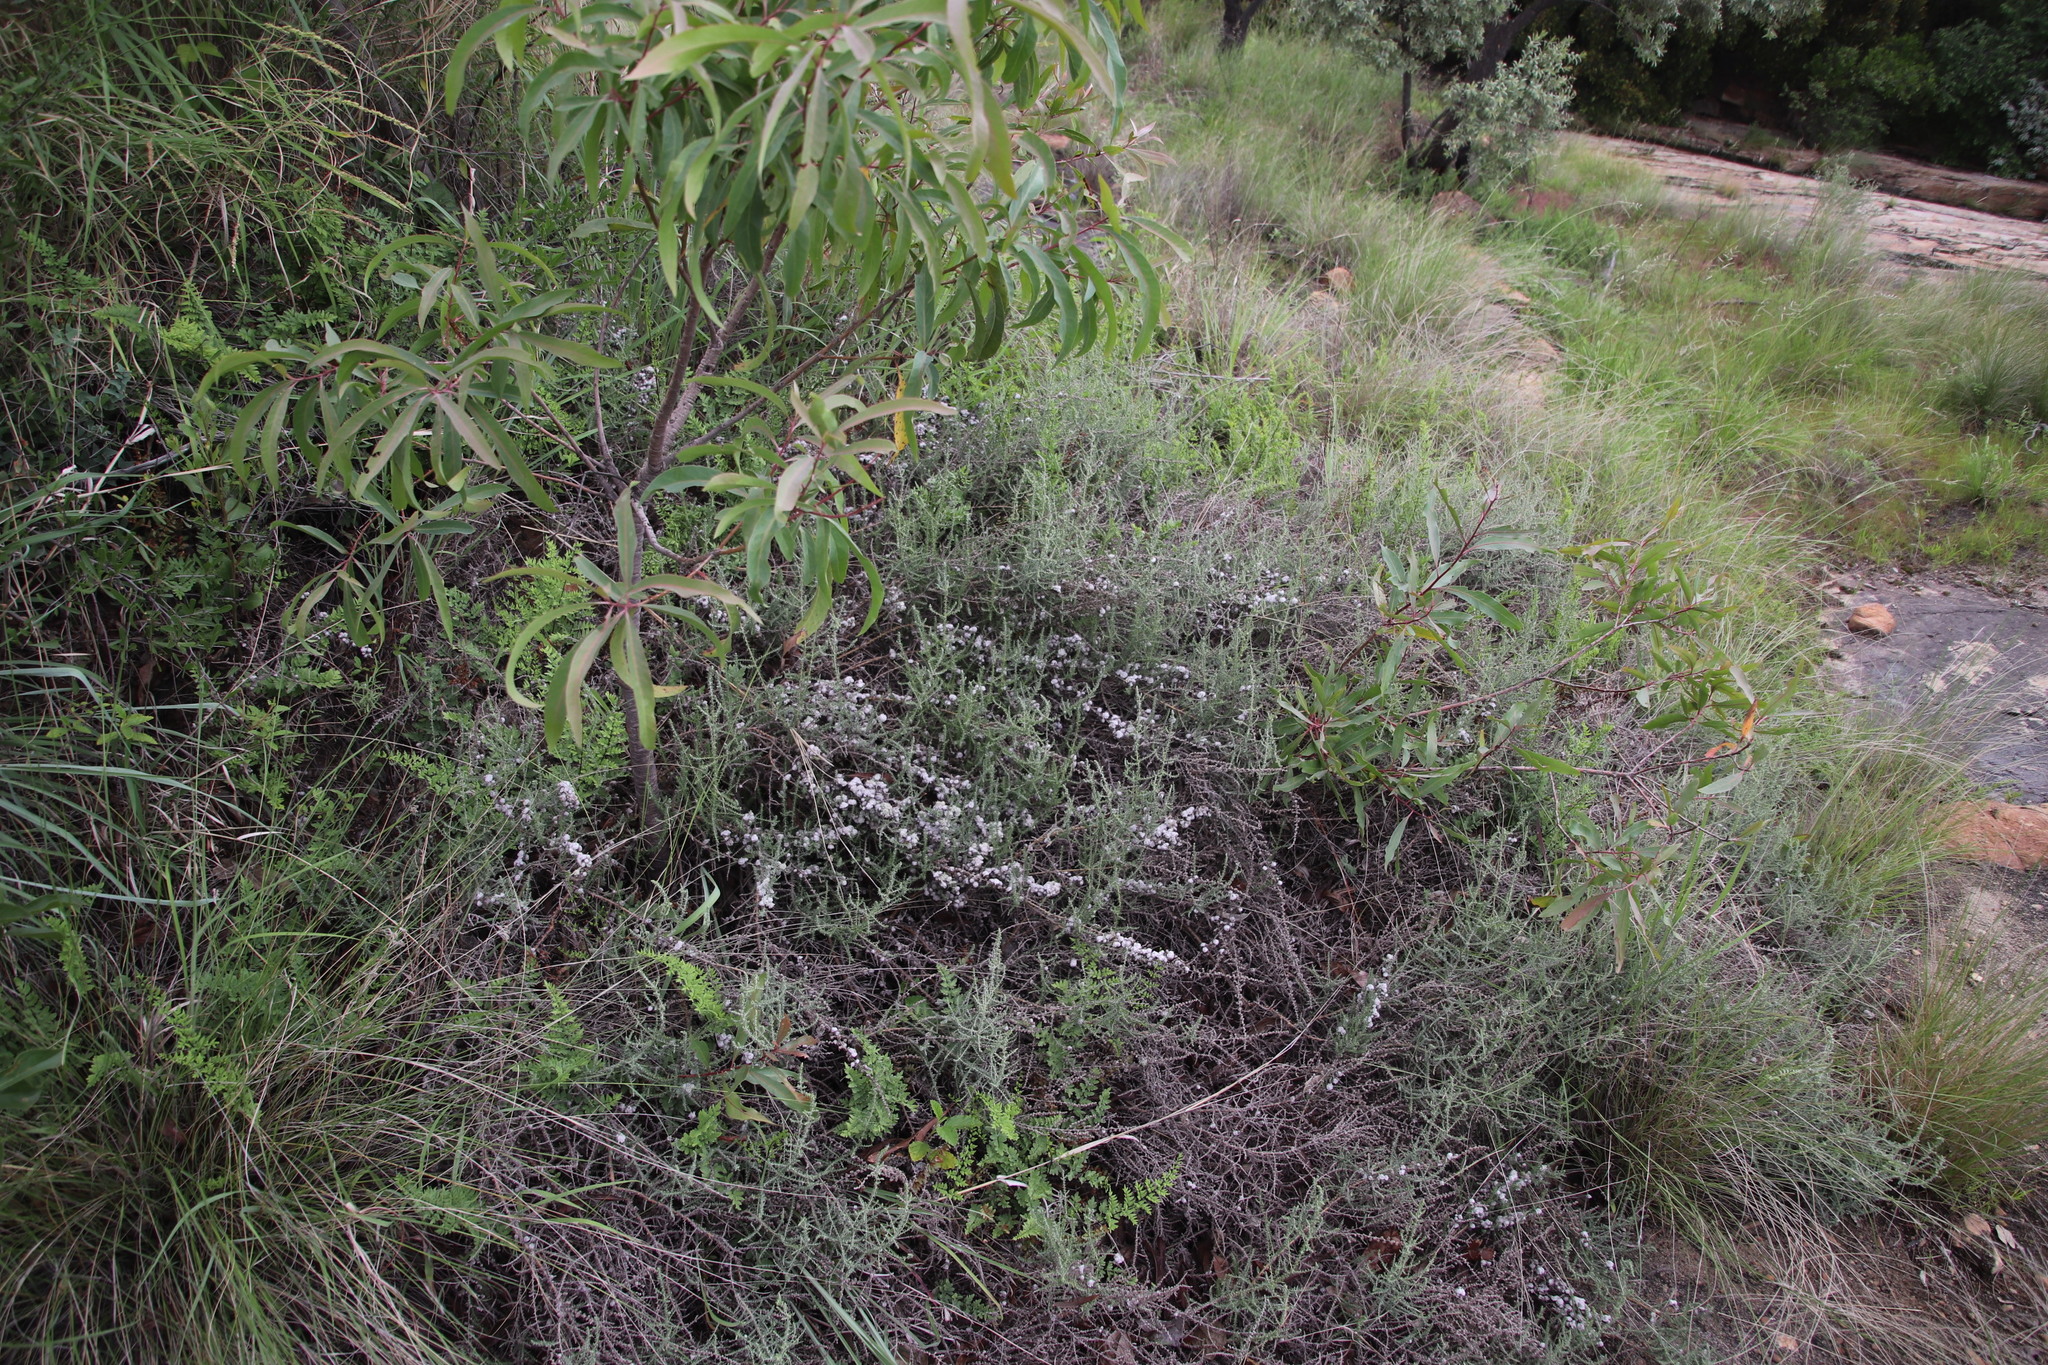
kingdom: Plantae
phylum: Tracheophyta
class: Magnoliopsida
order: Asterales
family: Asteraceae
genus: Seriphium
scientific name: Seriphium
